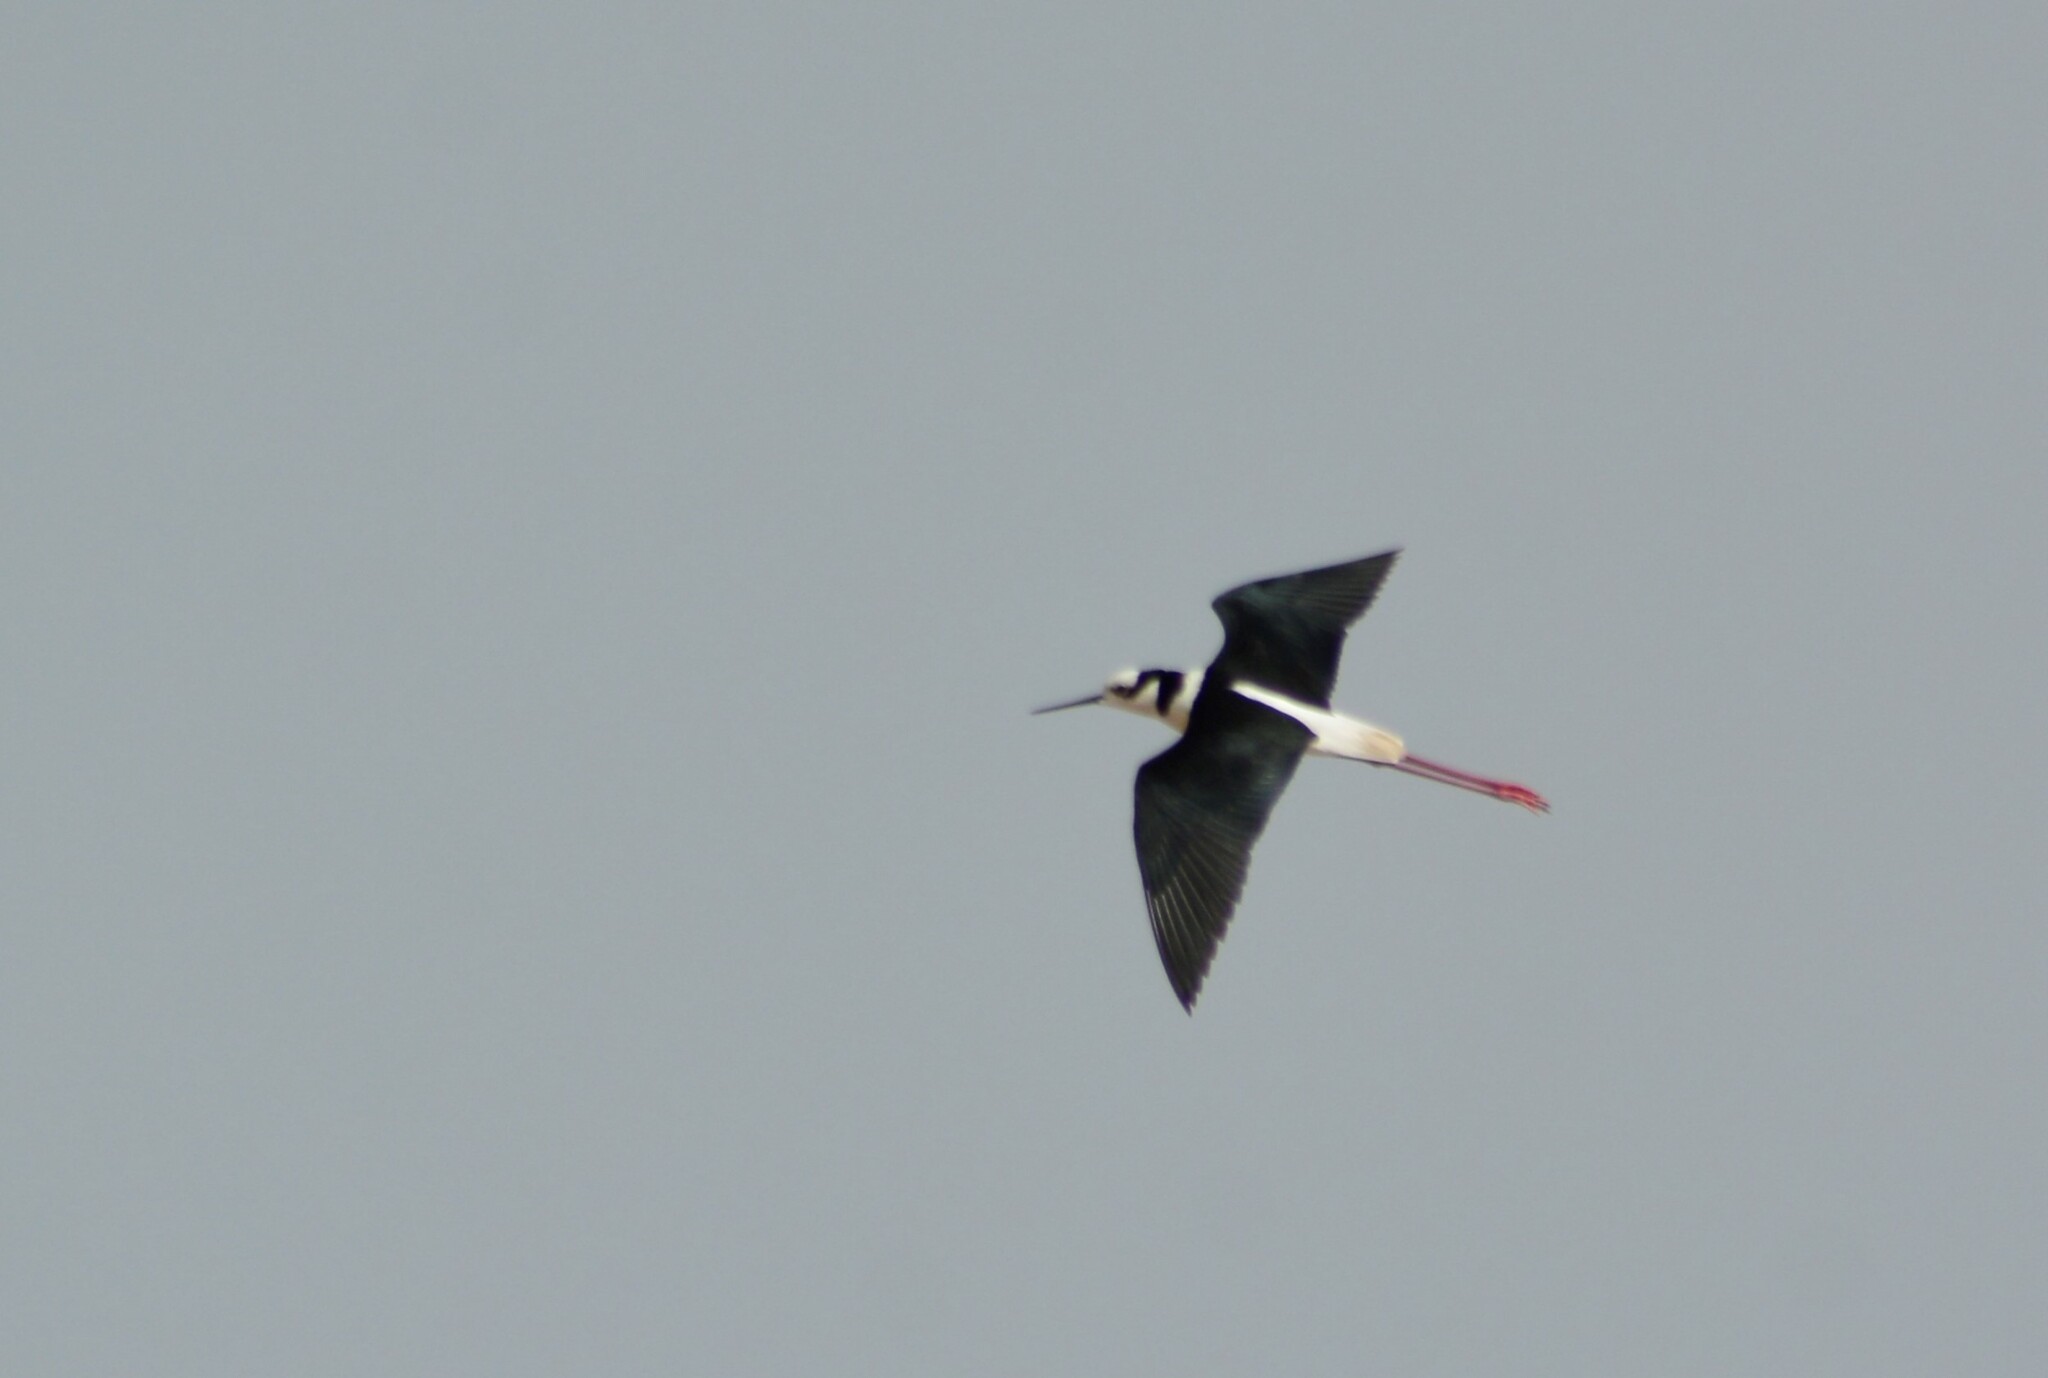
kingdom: Animalia
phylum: Chordata
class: Aves
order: Charadriiformes
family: Recurvirostridae
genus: Himantopus
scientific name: Himantopus mexicanus
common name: Black-necked stilt
